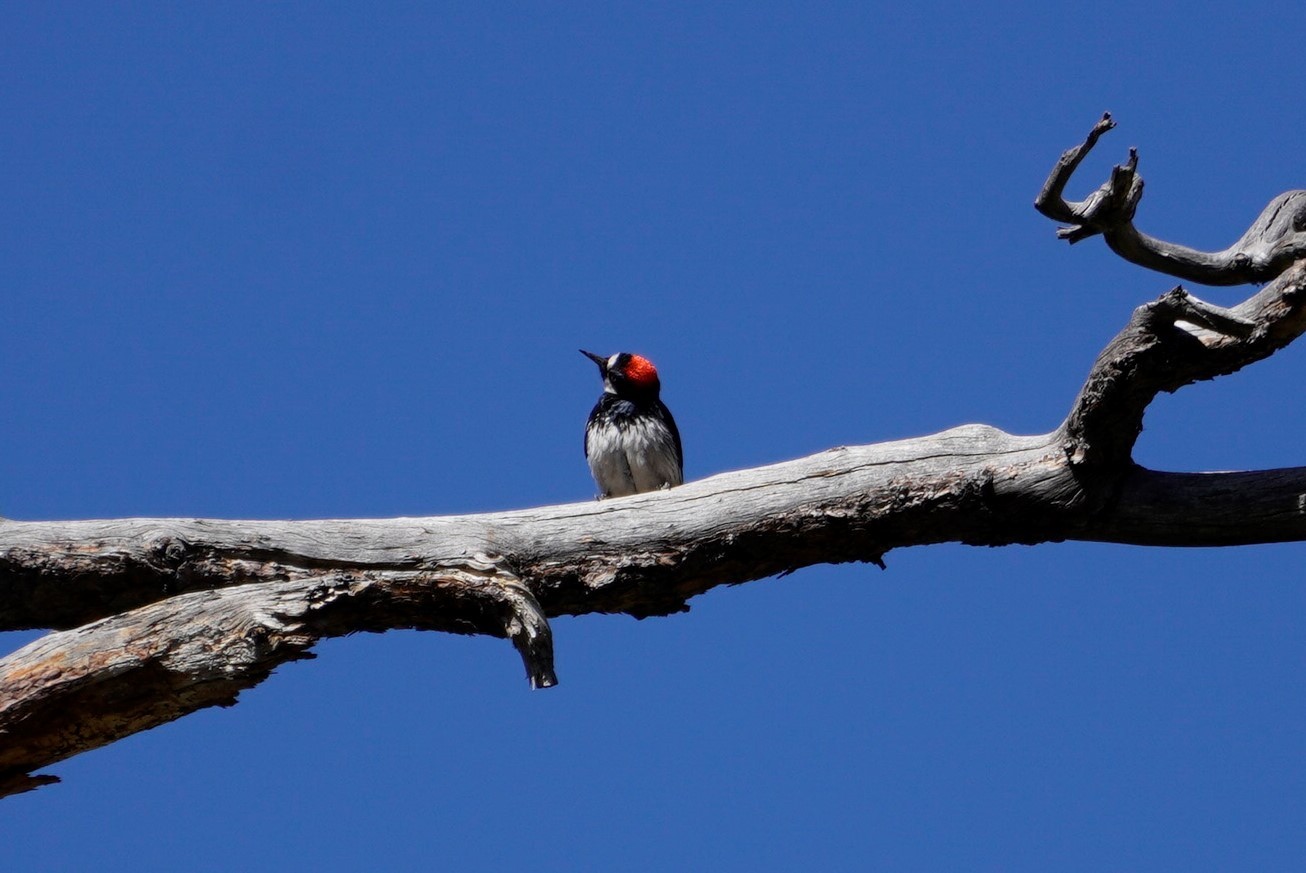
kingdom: Animalia
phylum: Chordata
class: Aves
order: Piciformes
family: Picidae
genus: Melanerpes
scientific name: Melanerpes formicivorus
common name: Acorn woodpecker
